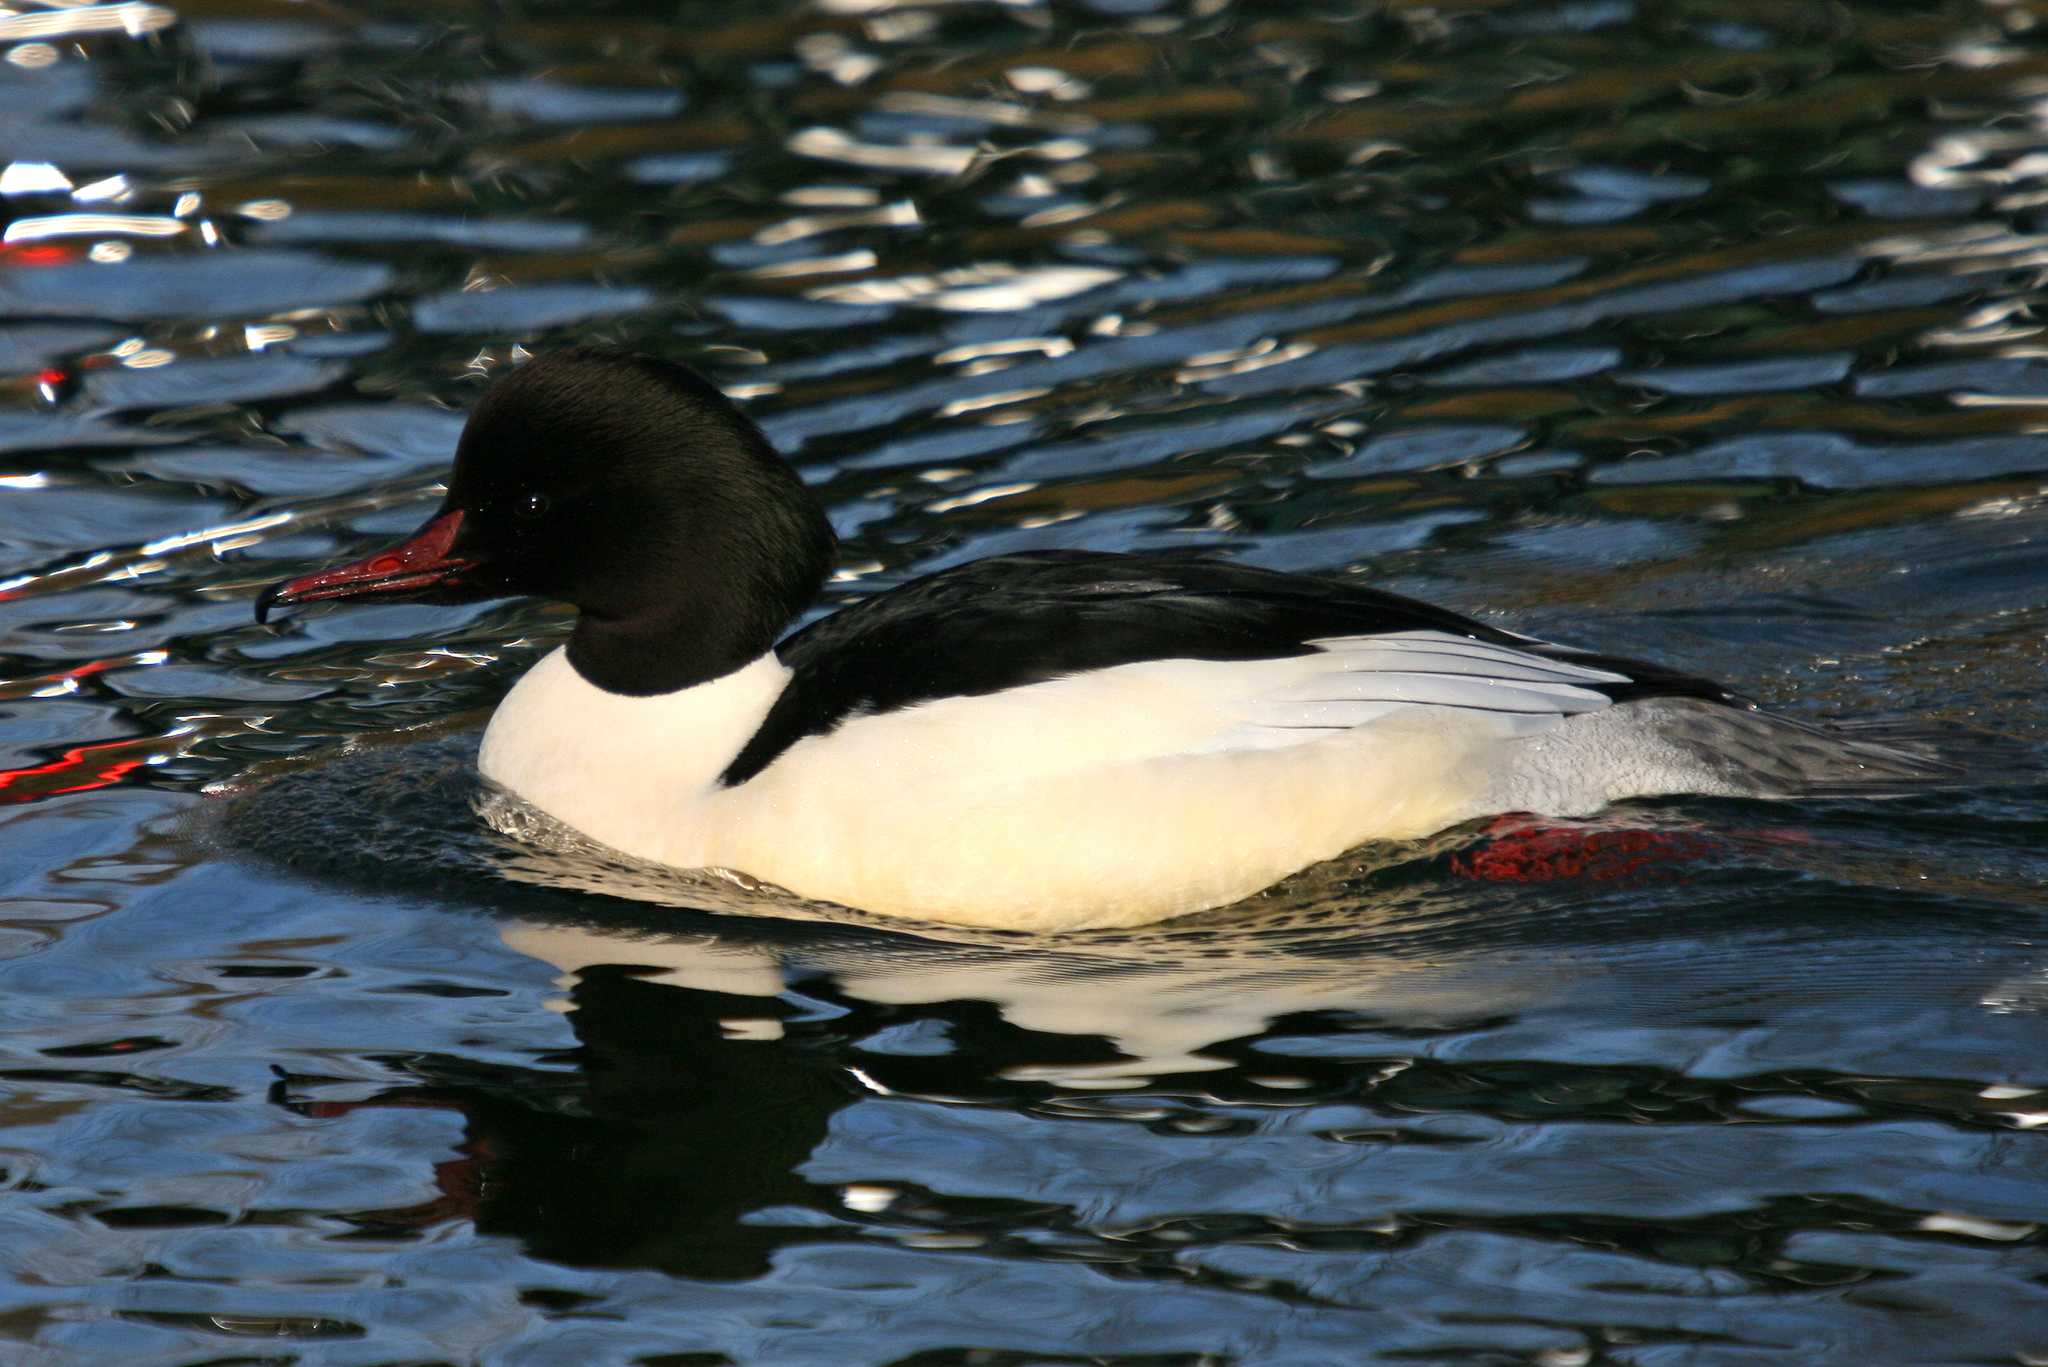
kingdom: Animalia
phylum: Chordata
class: Aves
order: Anseriformes
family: Anatidae
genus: Mergus
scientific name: Mergus merganser
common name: Common merganser
